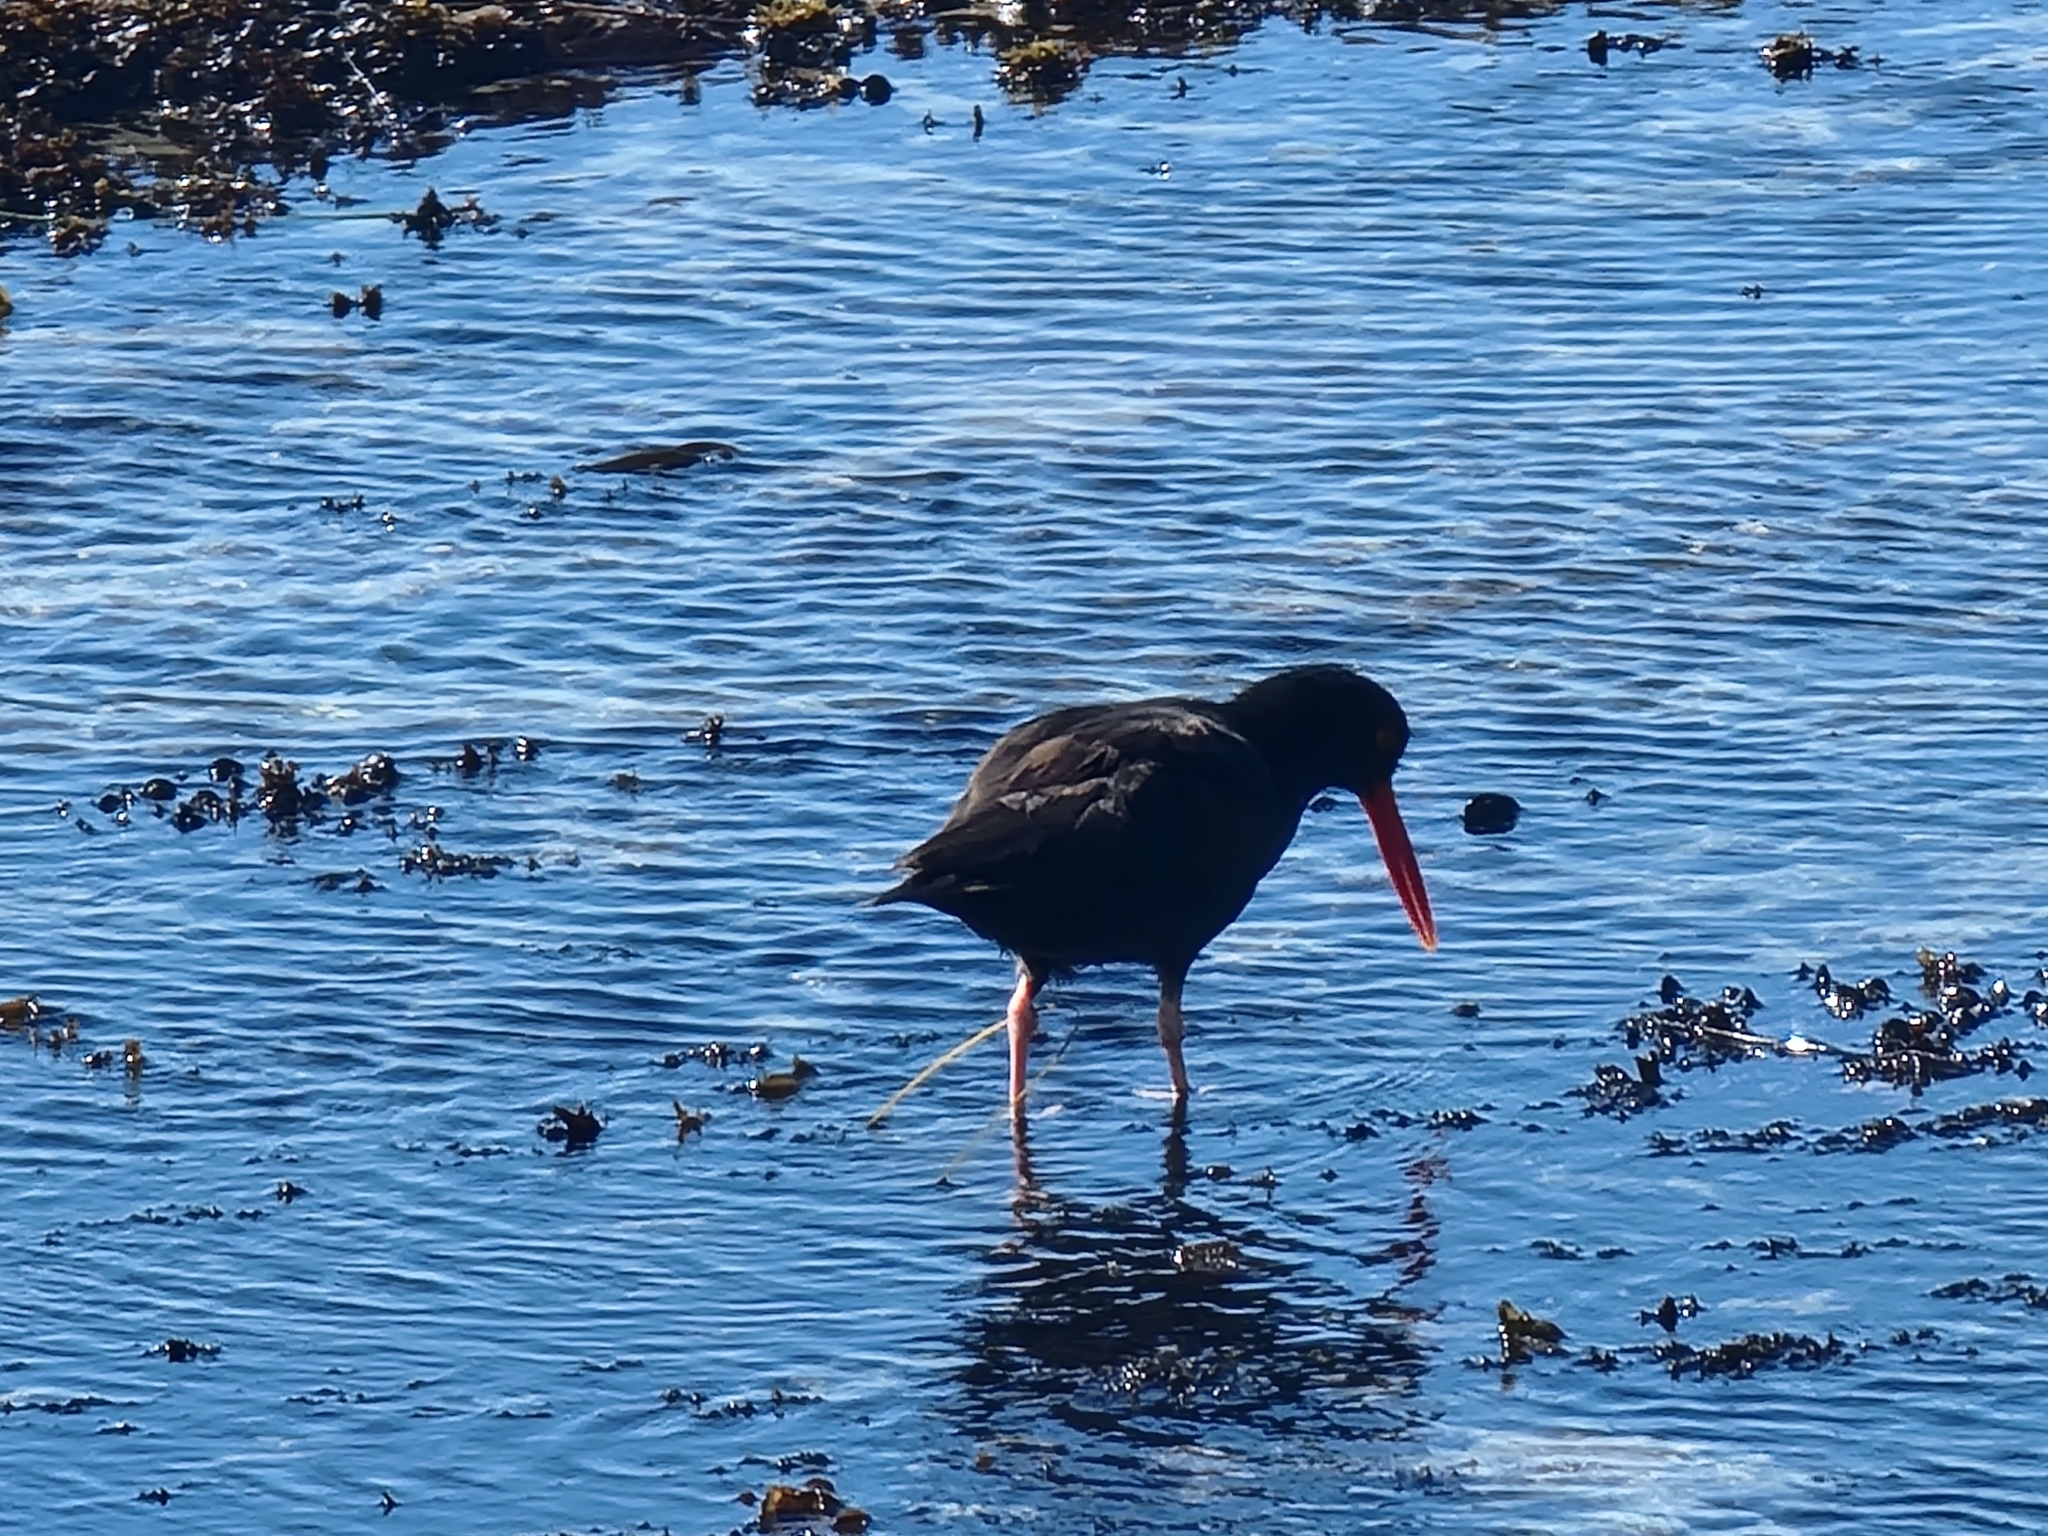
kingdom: Animalia
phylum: Chordata
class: Aves
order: Charadriiformes
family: Haematopodidae
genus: Haematopus
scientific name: Haematopus bachmani
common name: Black oystercatcher
